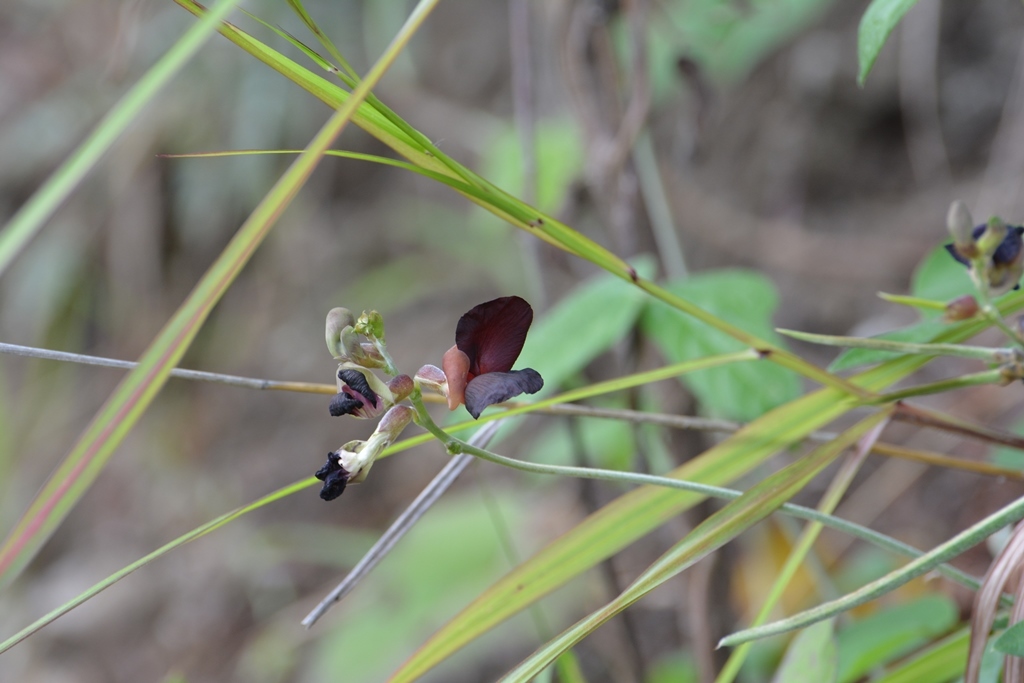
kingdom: Plantae
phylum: Tracheophyta
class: Magnoliopsida
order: Fabales
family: Fabaceae
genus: Macroptilium
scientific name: Macroptilium atropurpureum
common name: Purple bushbean
